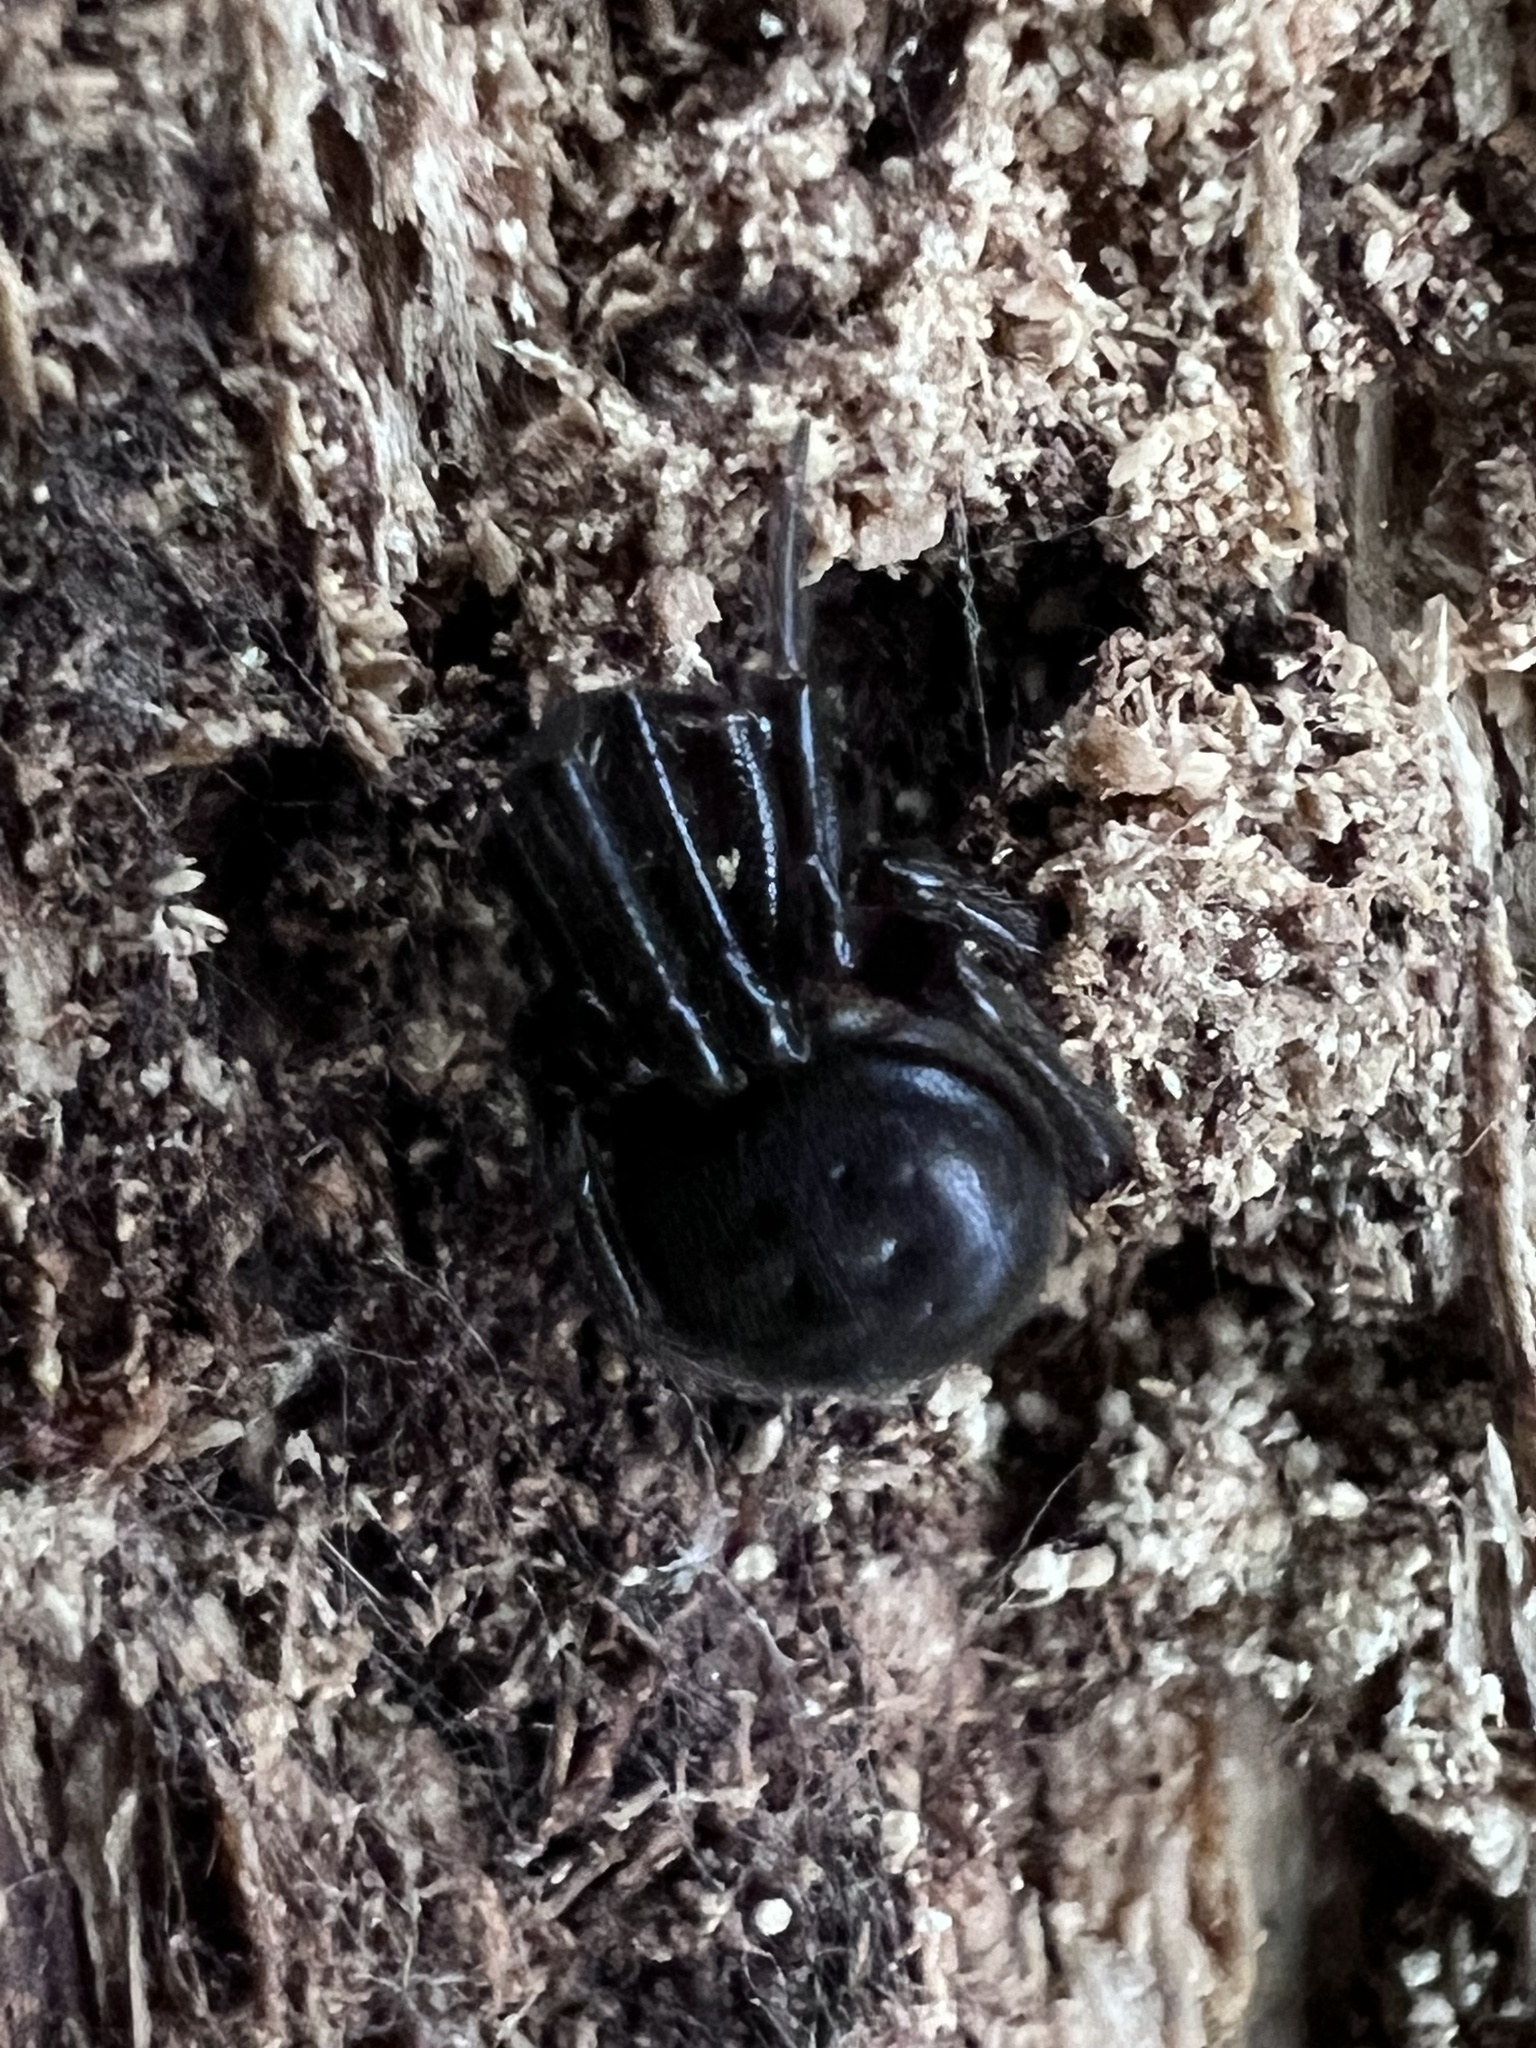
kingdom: Animalia
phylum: Arthropoda
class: Arachnida
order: Araneae
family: Theridiidae
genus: Steatoda
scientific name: Steatoda borealis
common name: Boreal combfoot
